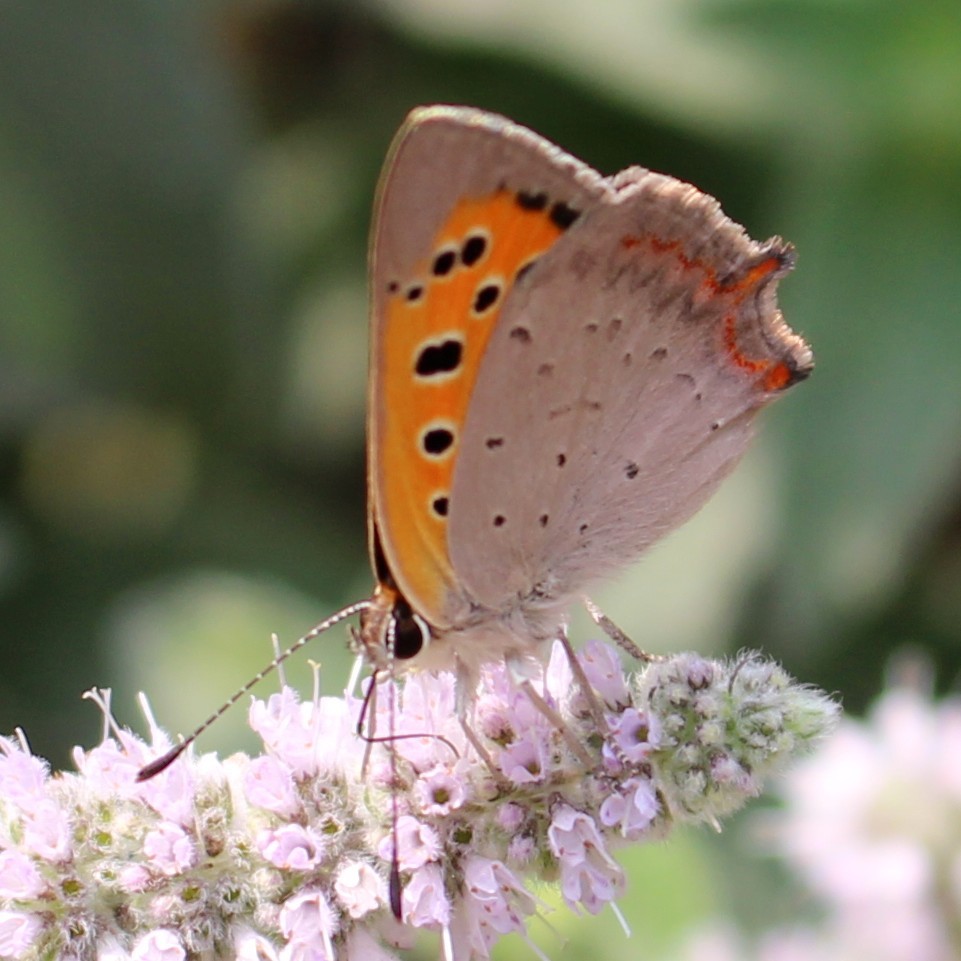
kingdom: Animalia
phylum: Arthropoda
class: Insecta
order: Lepidoptera
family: Lycaenidae
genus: Lycaena
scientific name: Lycaena phlaeas
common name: Small copper
